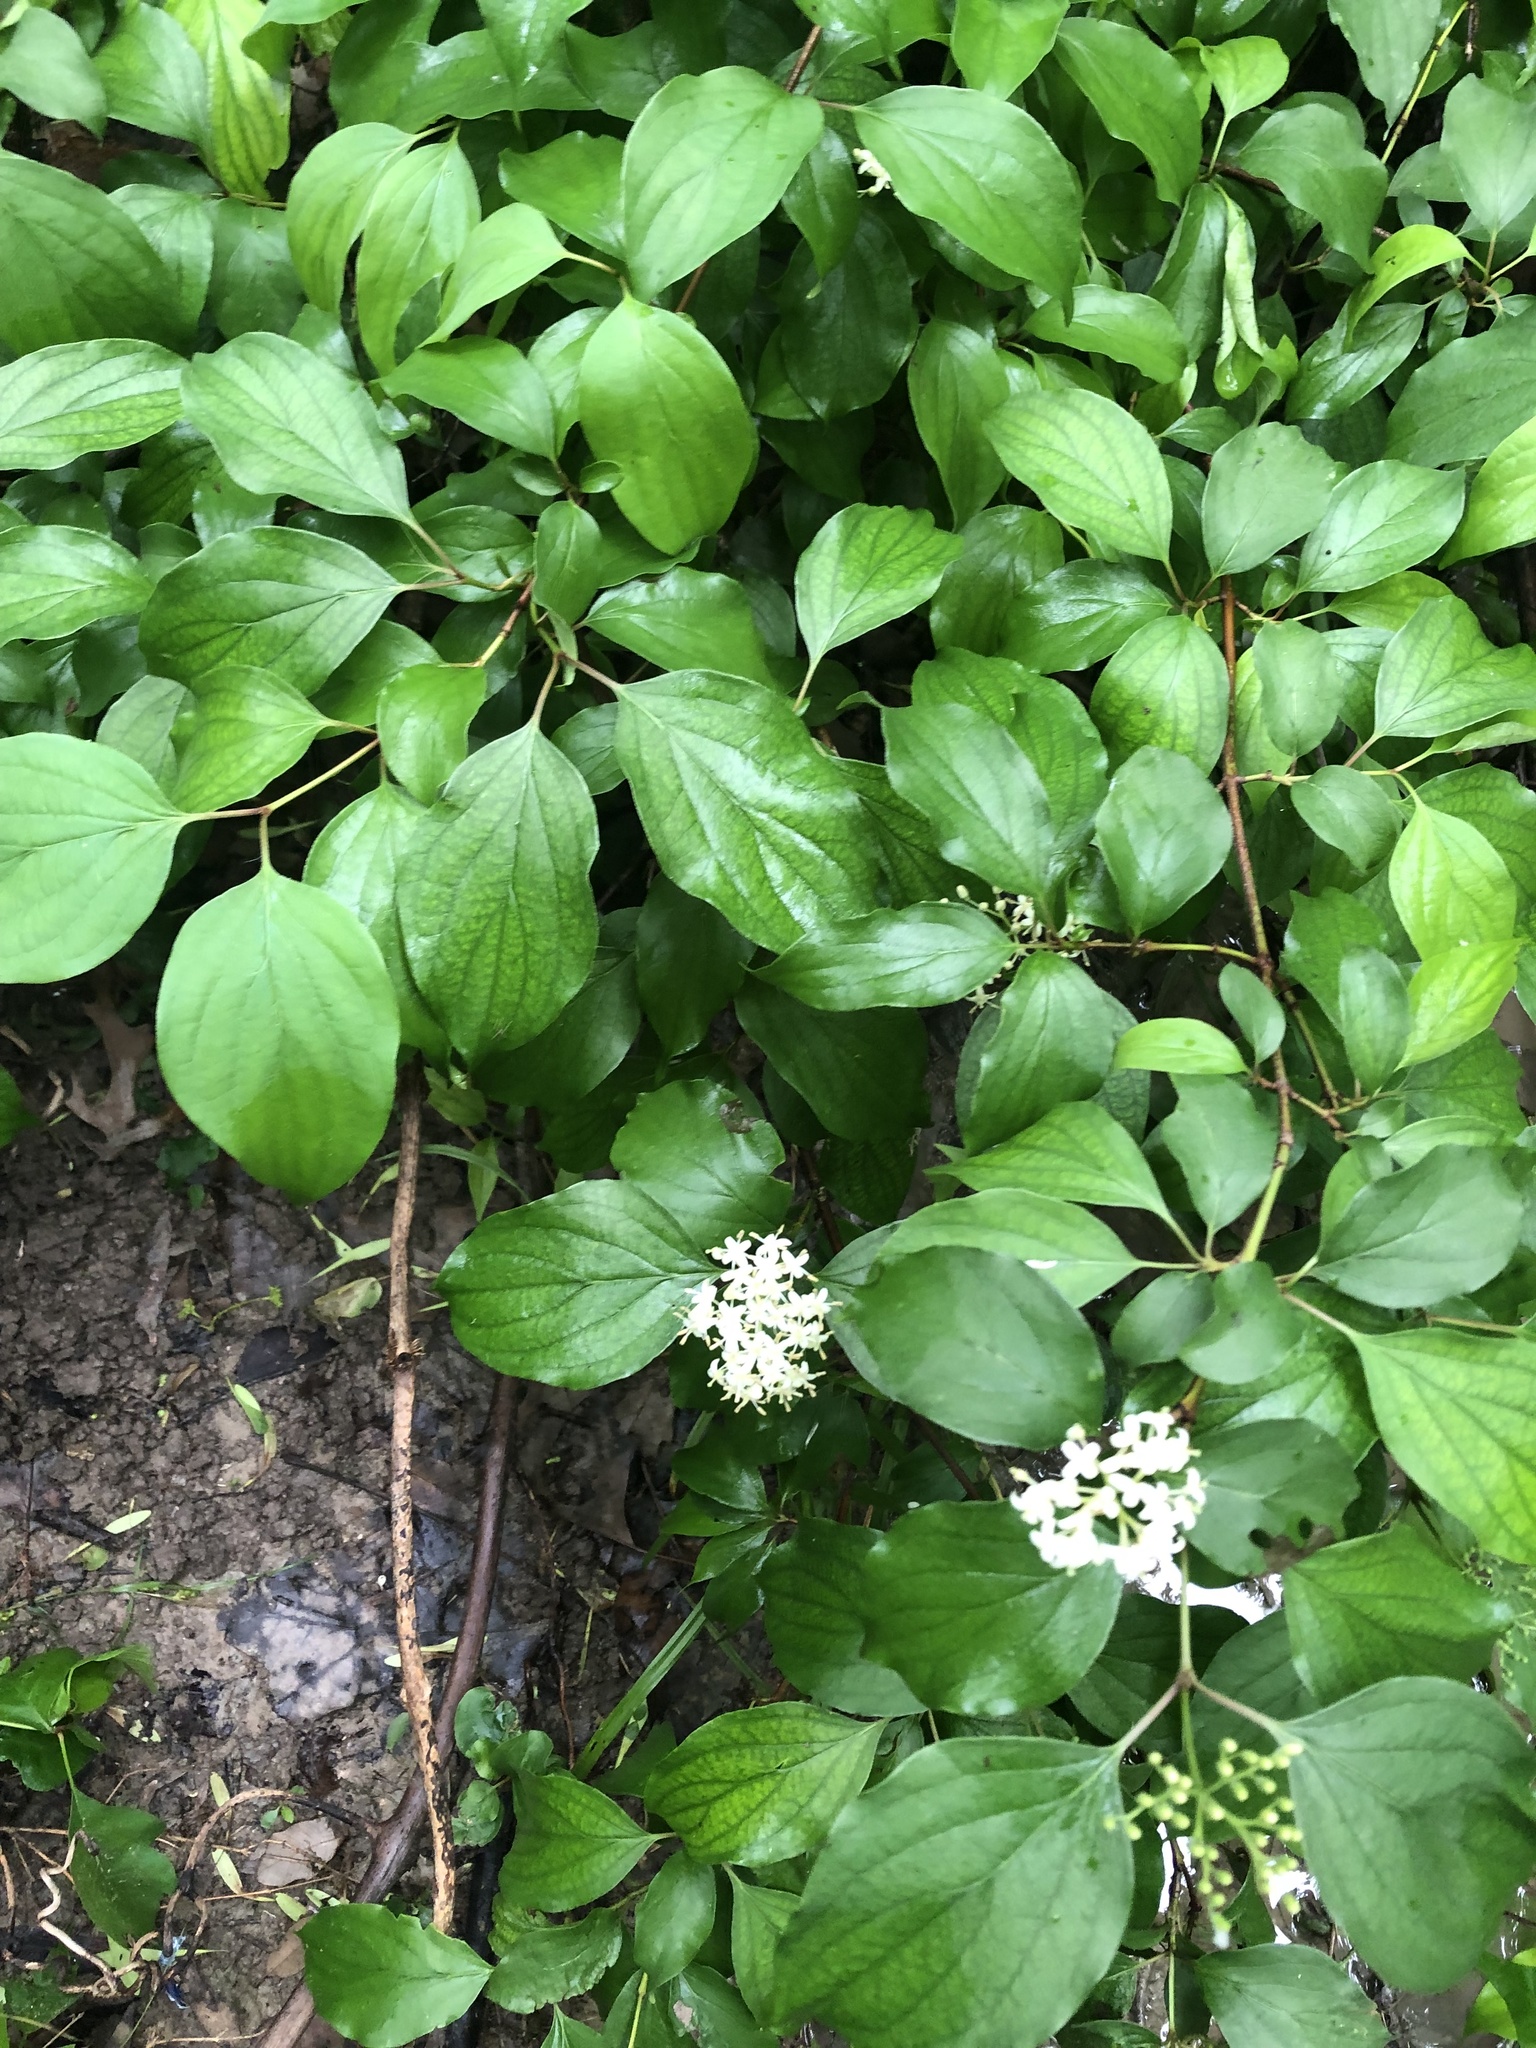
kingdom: Plantae
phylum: Tracheophyta
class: Magnoliopsida
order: Cornales
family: Cornaceae
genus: Cornus
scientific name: Cornus drummondii
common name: Rough-leaf dogwood
